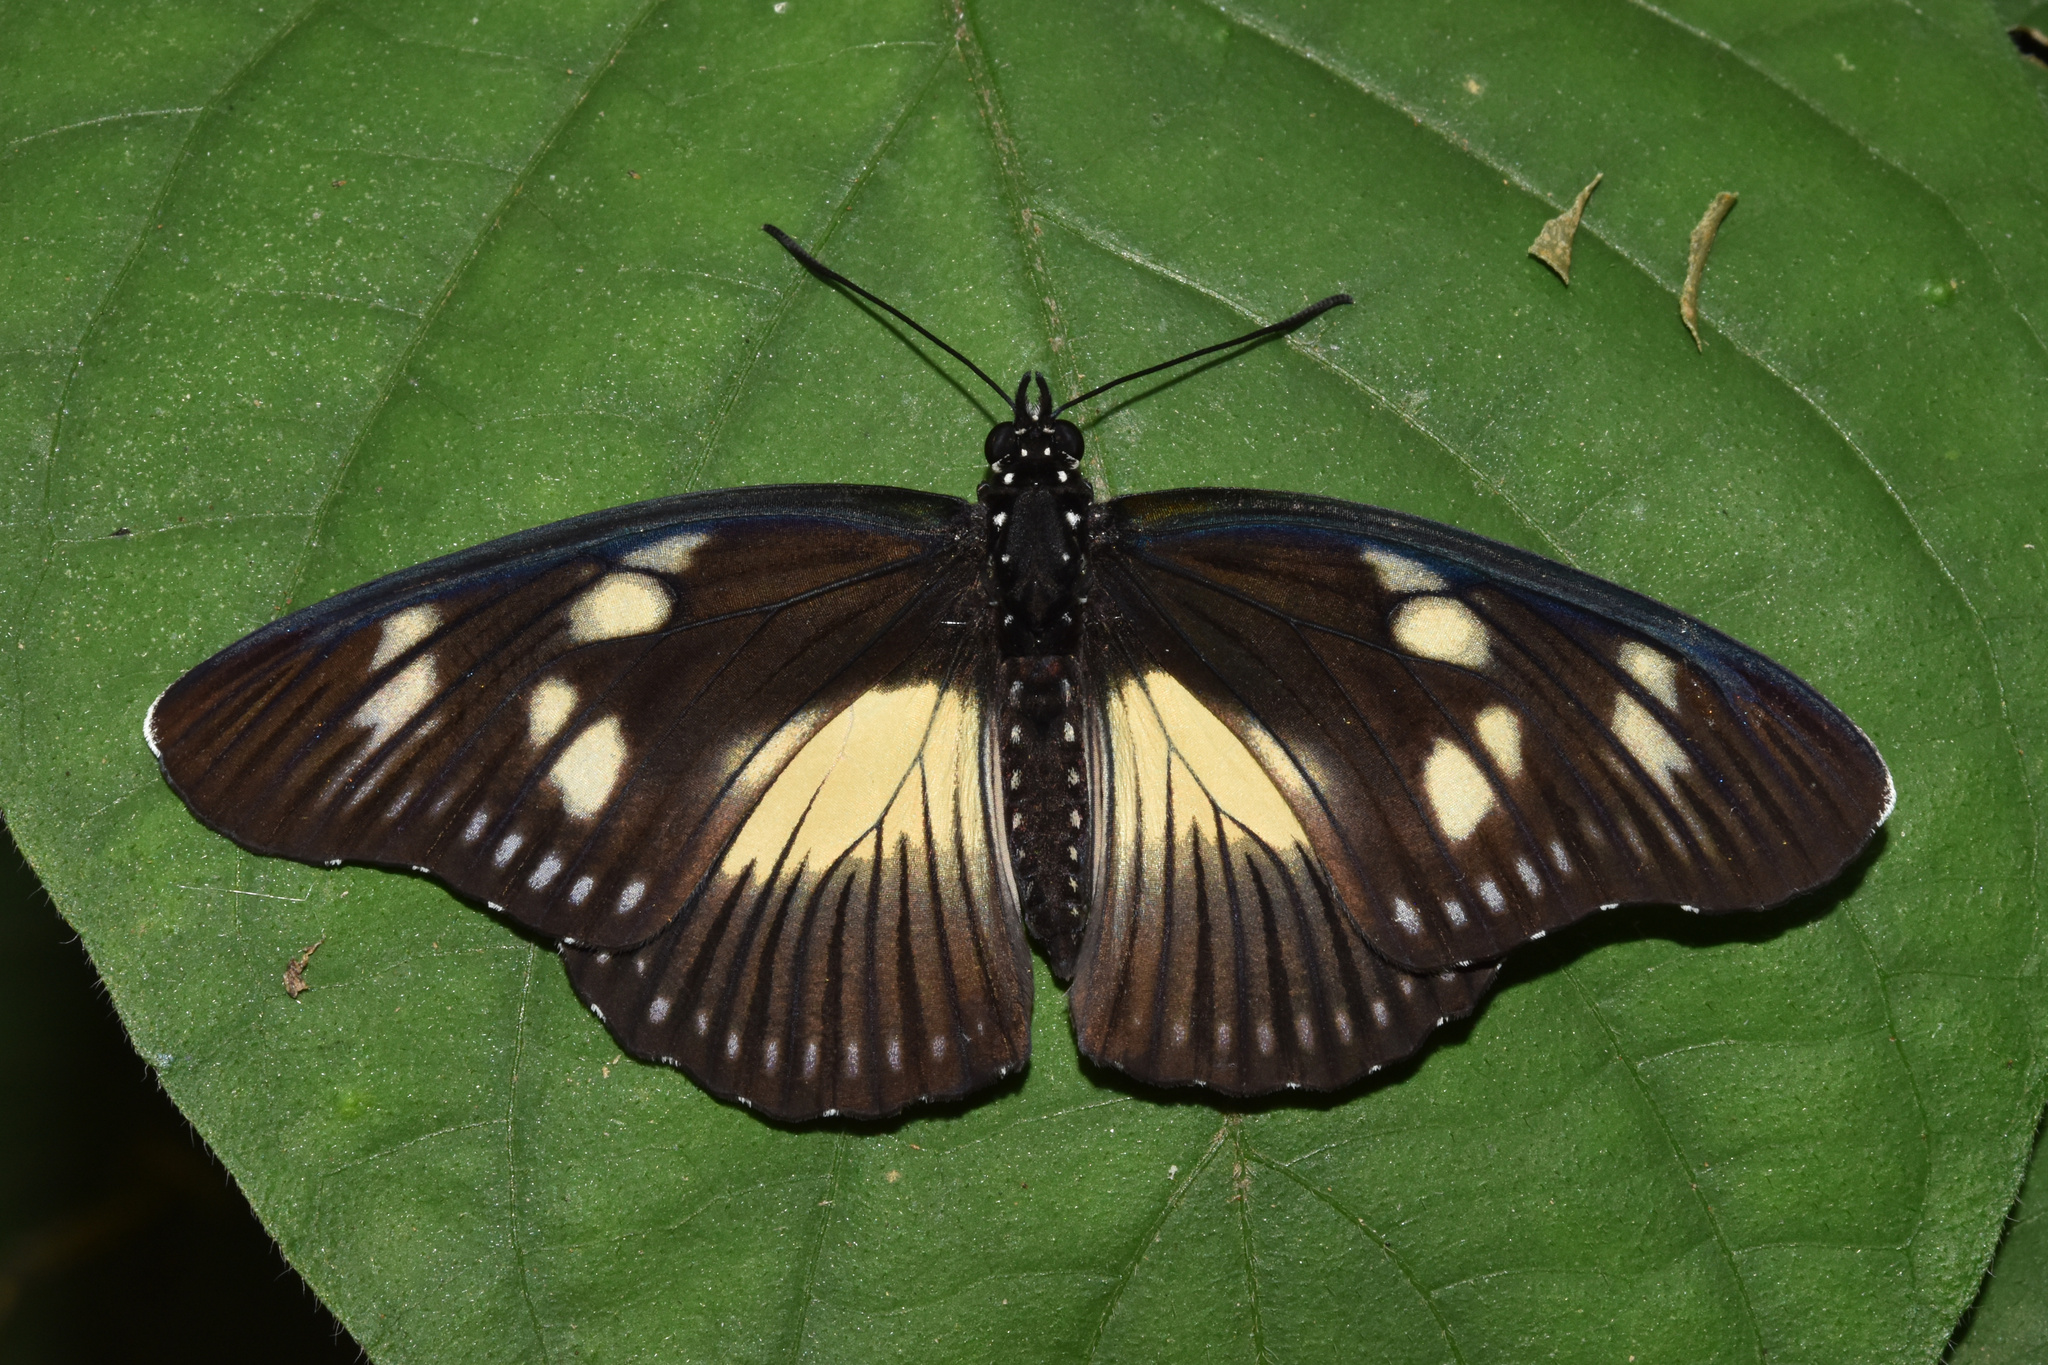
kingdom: Animalia
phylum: Arthropoda
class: Insecta
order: Lepidoptera
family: Nymphalidae
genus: Chloropoea
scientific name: Chloropoea lucretia
